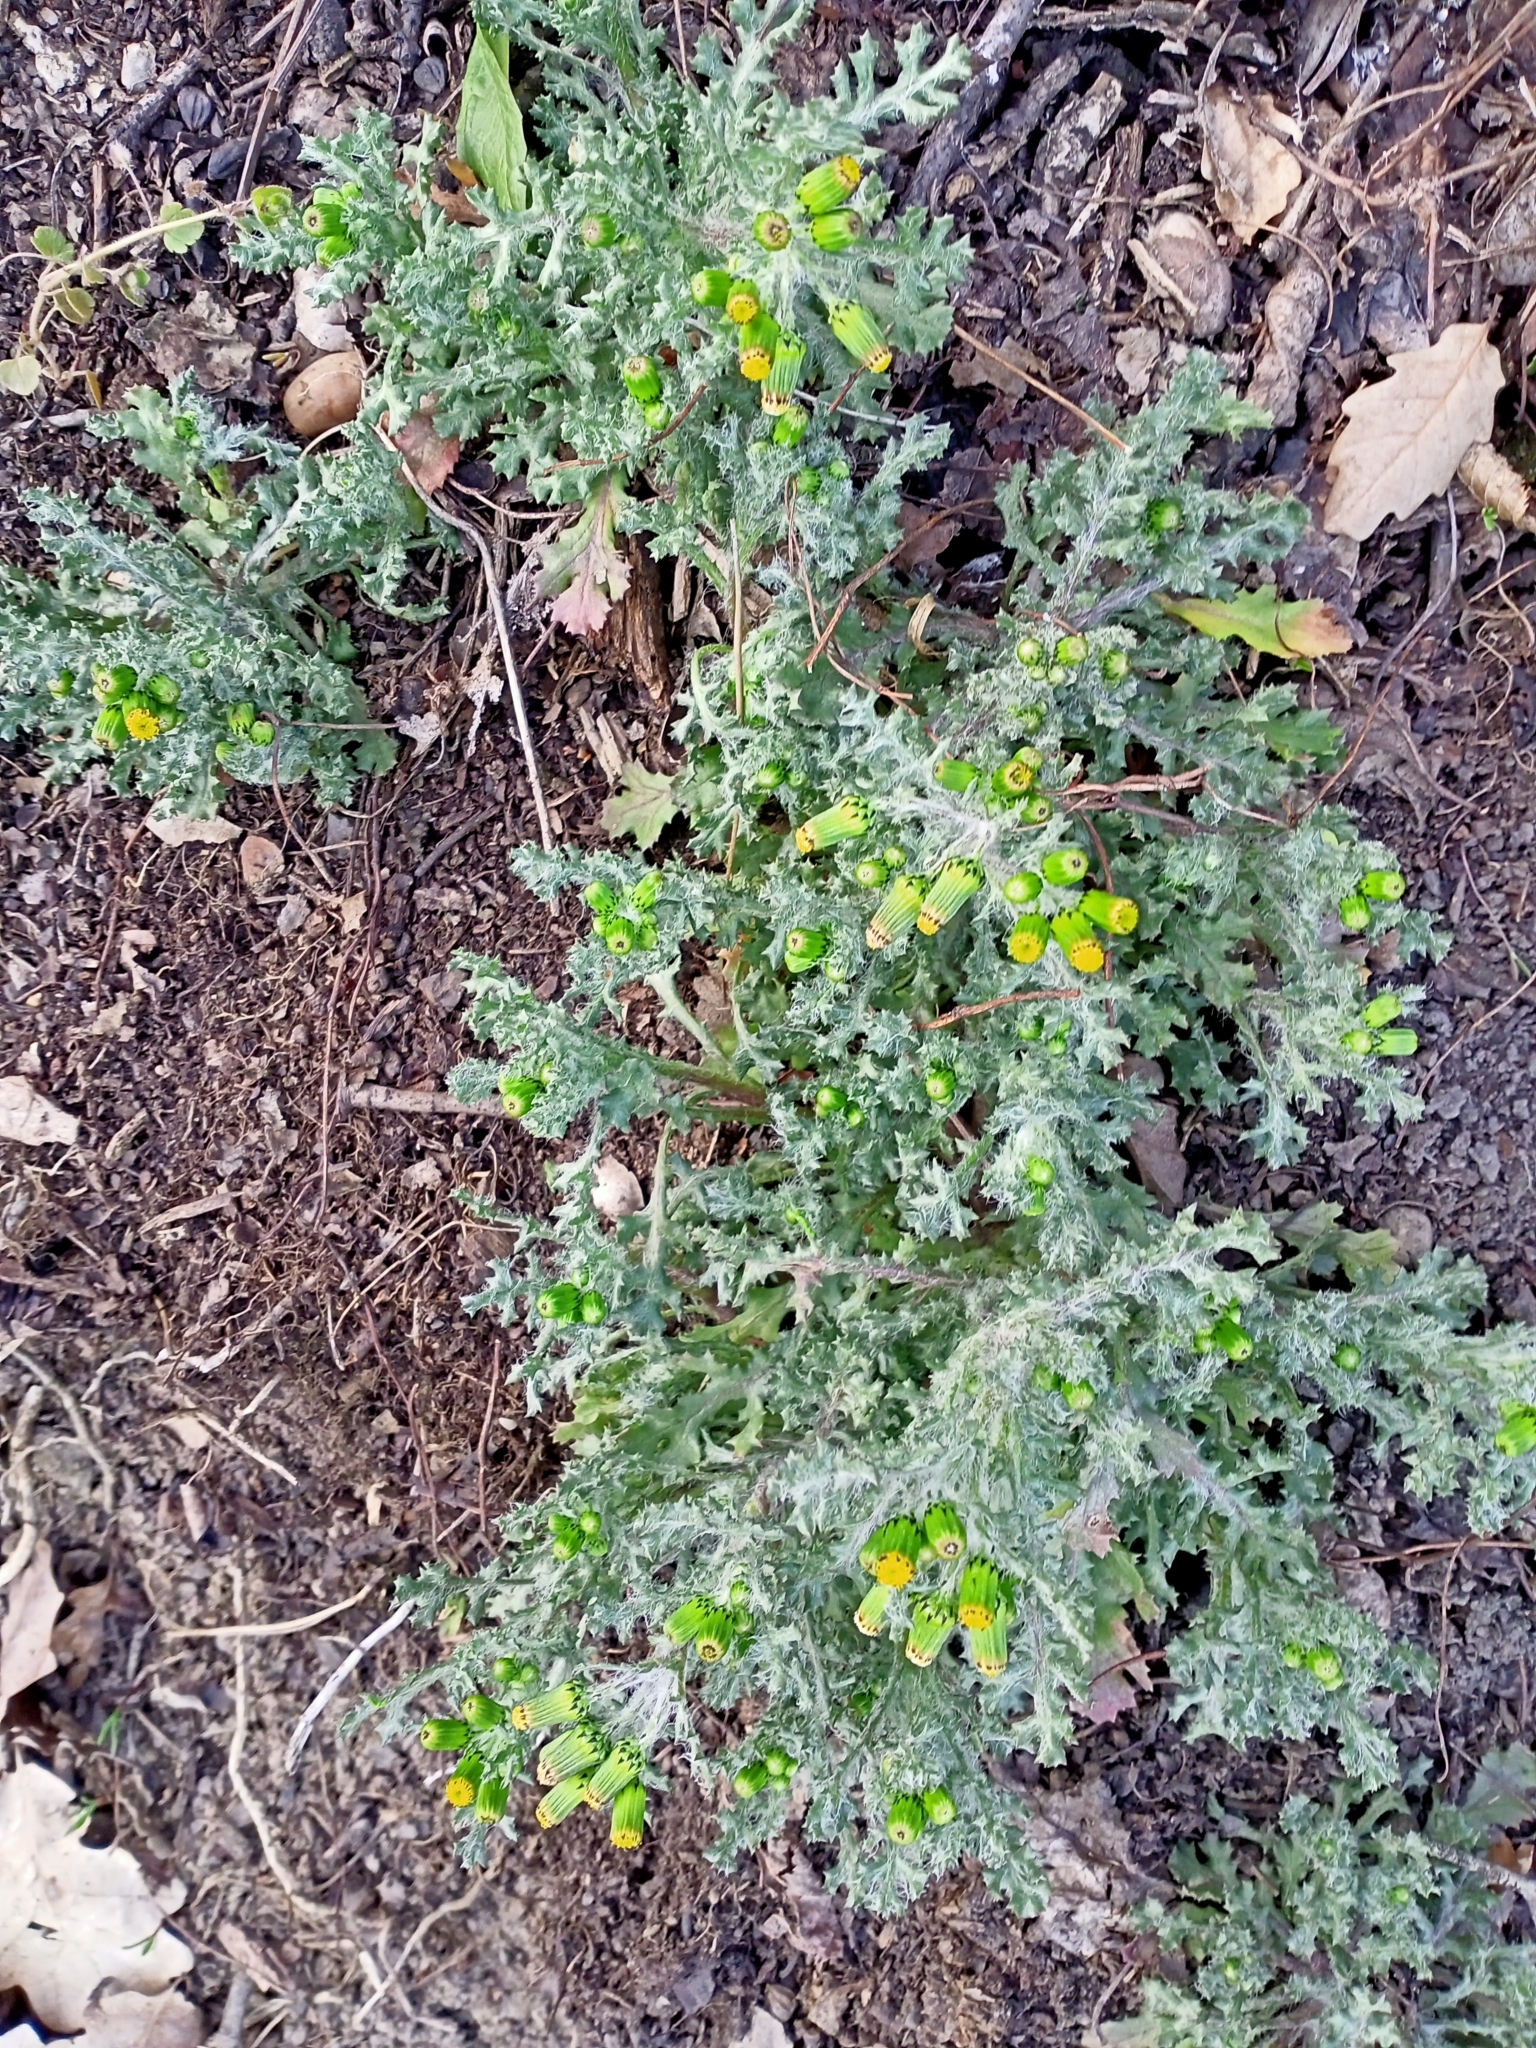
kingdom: Plantae
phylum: Tracheophyta
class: Magnoliopsida
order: Asterales
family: Asteraceae
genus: Senecio
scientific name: Senecio vulgaris
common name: Old-man-in-the-spring
